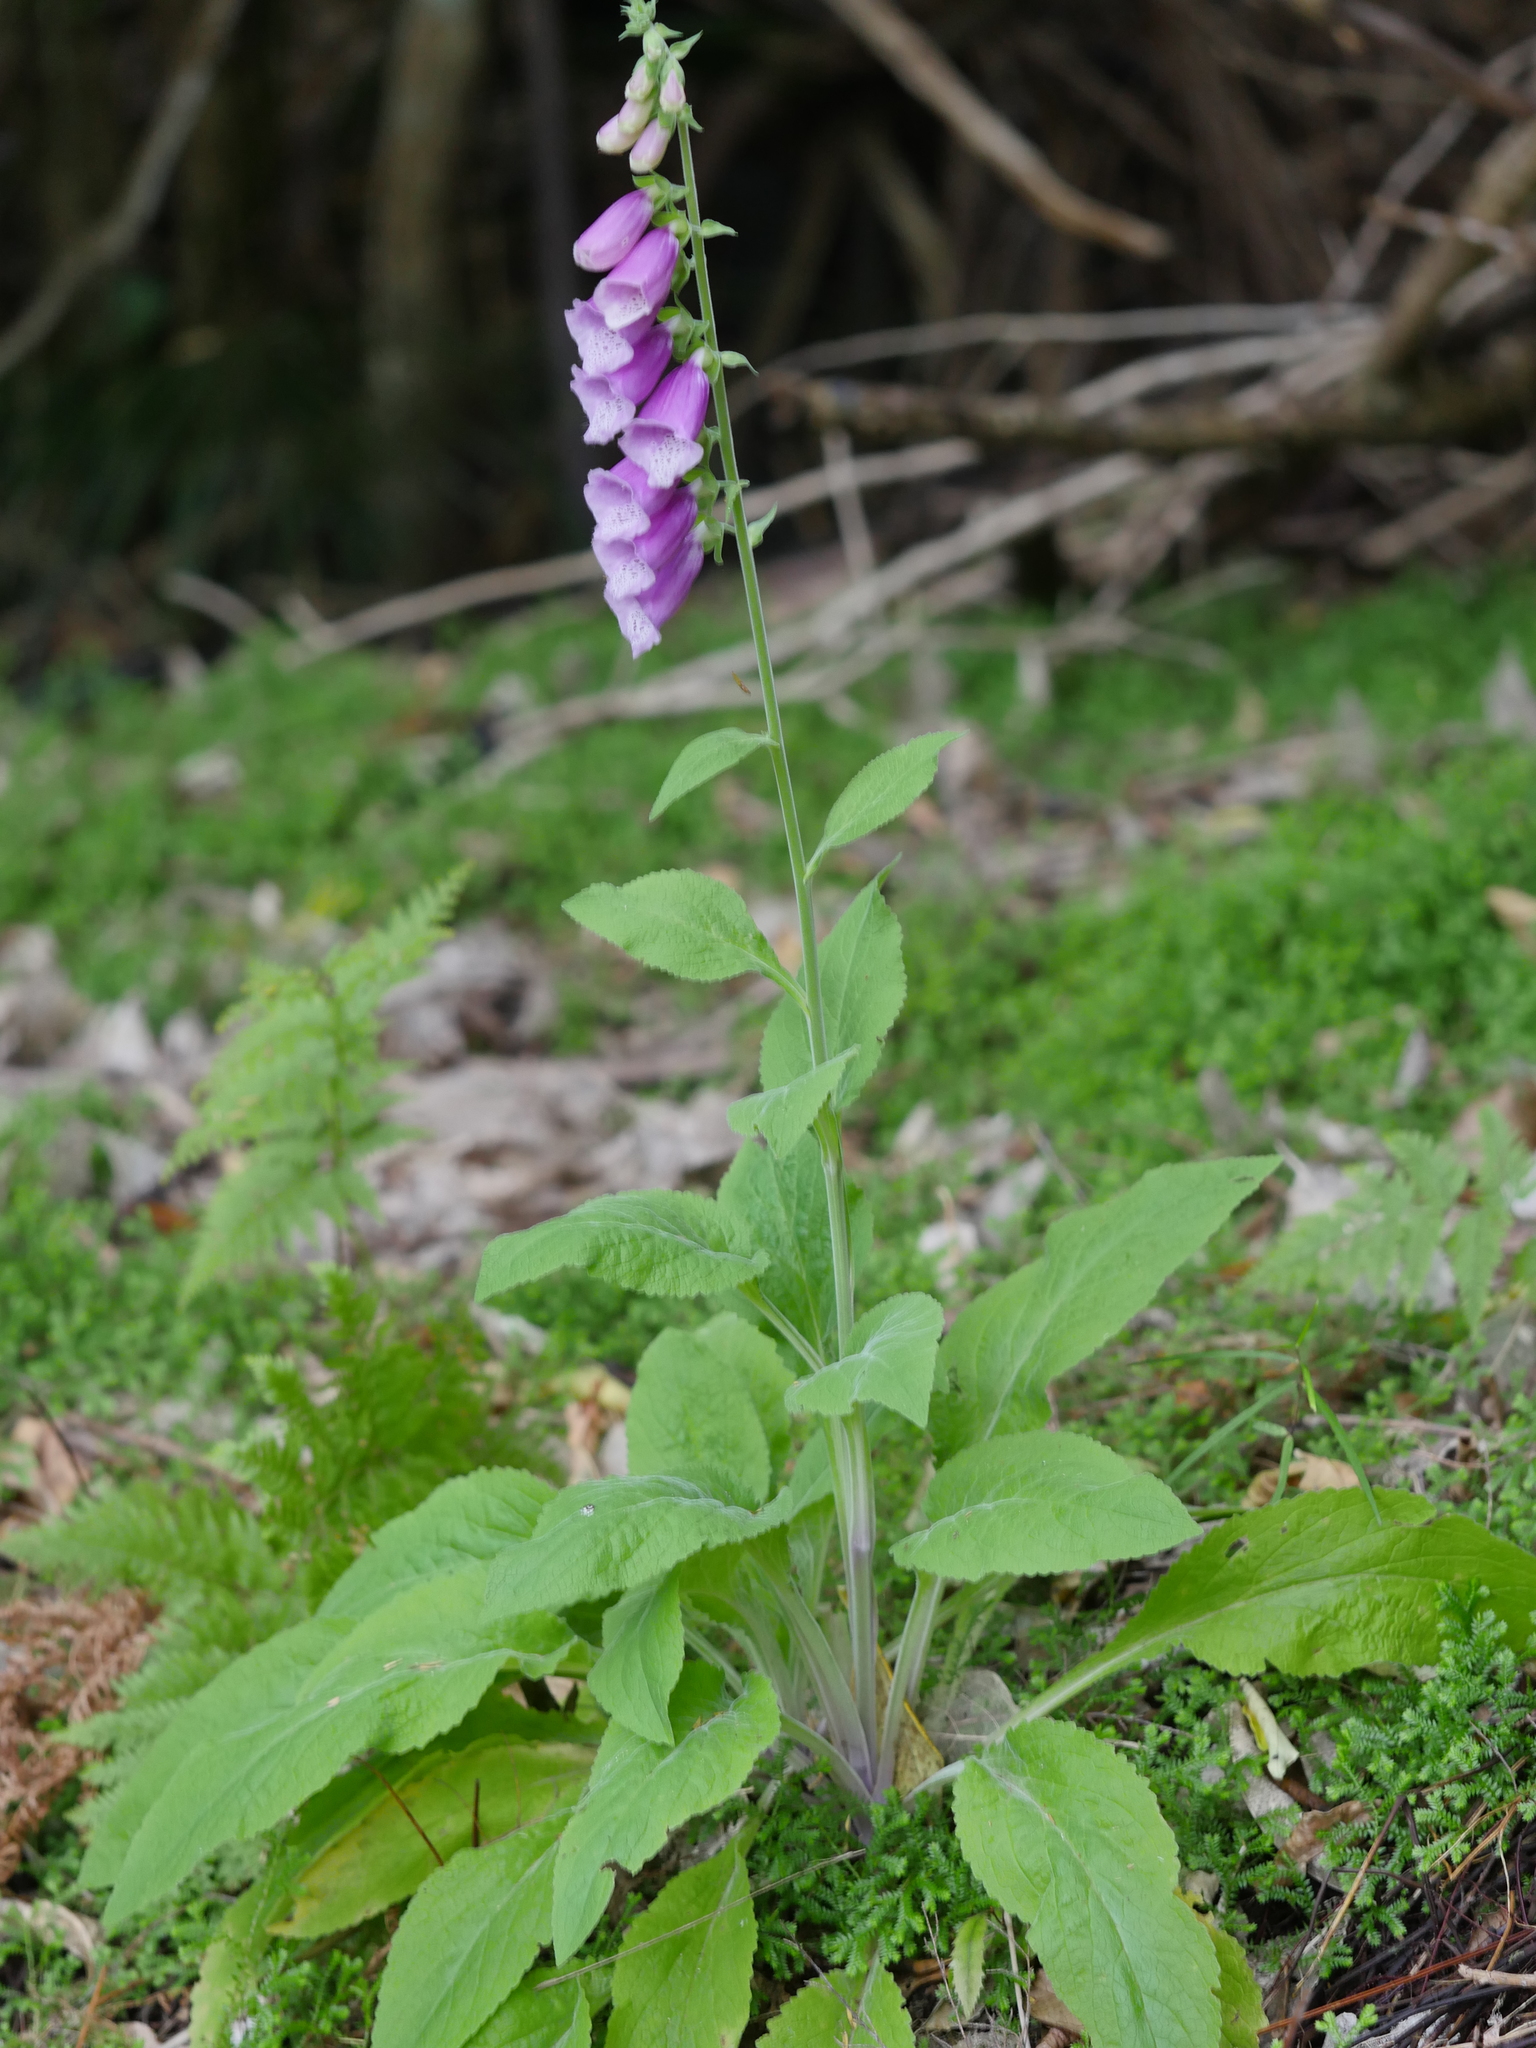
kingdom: Plantae
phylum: Tracheophyta
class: Magnoliopsida
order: Lamiales
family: Plantaginaceae
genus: Digitalis
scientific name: Digitalis purpurea
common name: Foxglove
